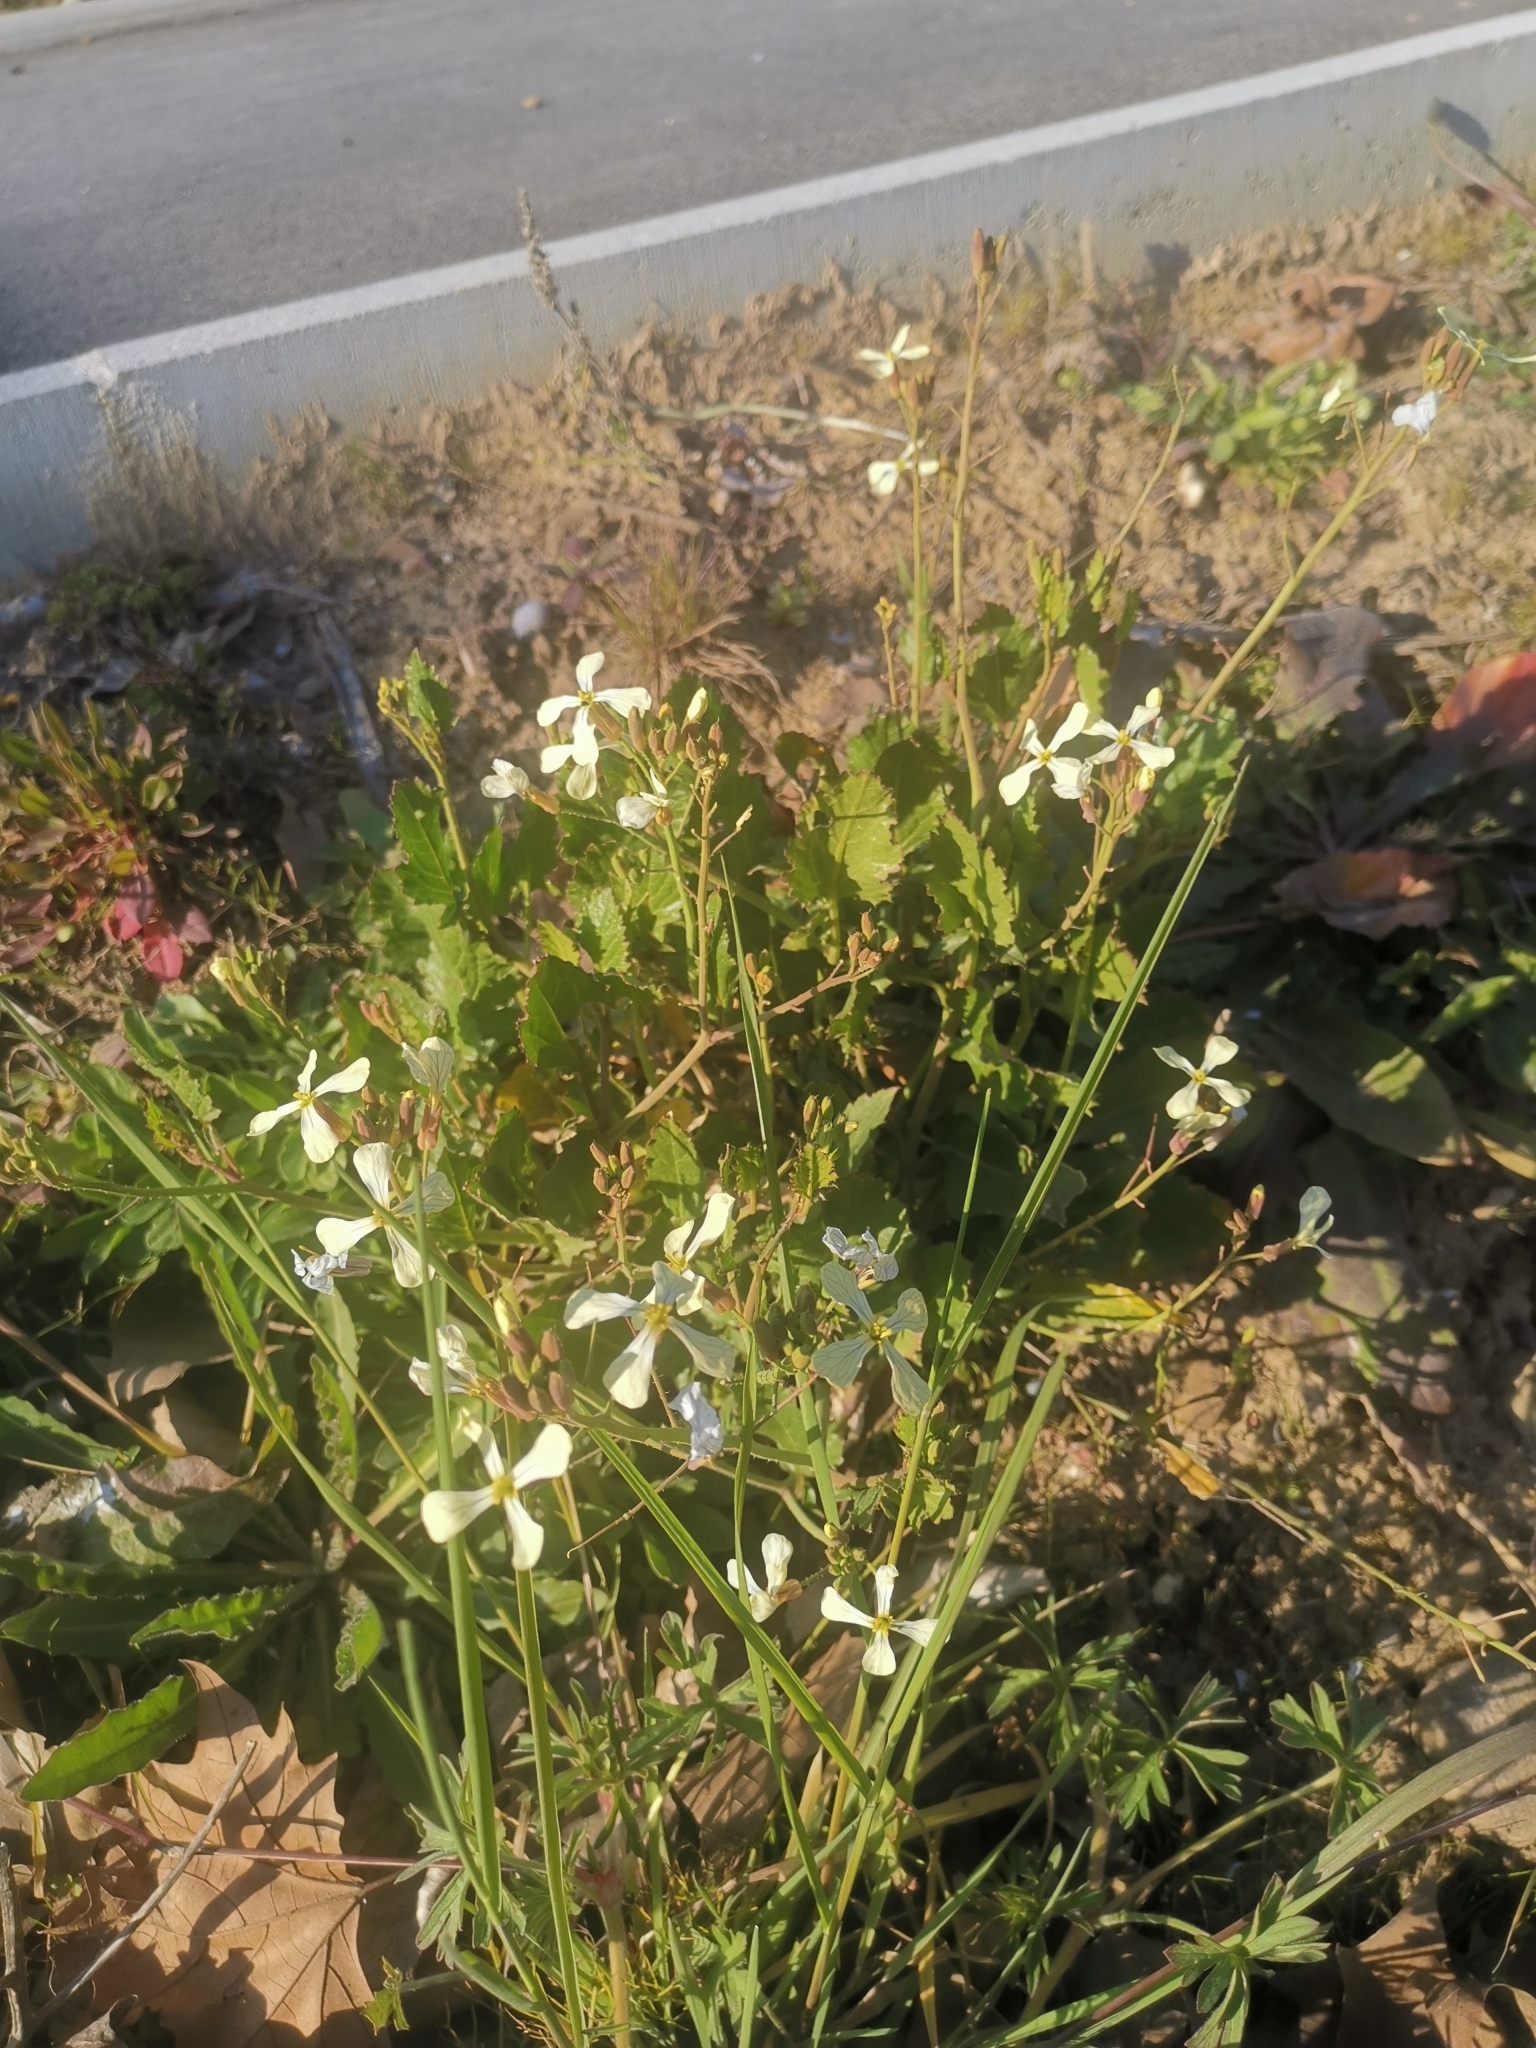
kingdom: Plantae
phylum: Tracheophyta
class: Magnoliopsida
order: Brassicales
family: Brassicaceae
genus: Raphanus
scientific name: Raphanus raphanistrum
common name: Wild radish
